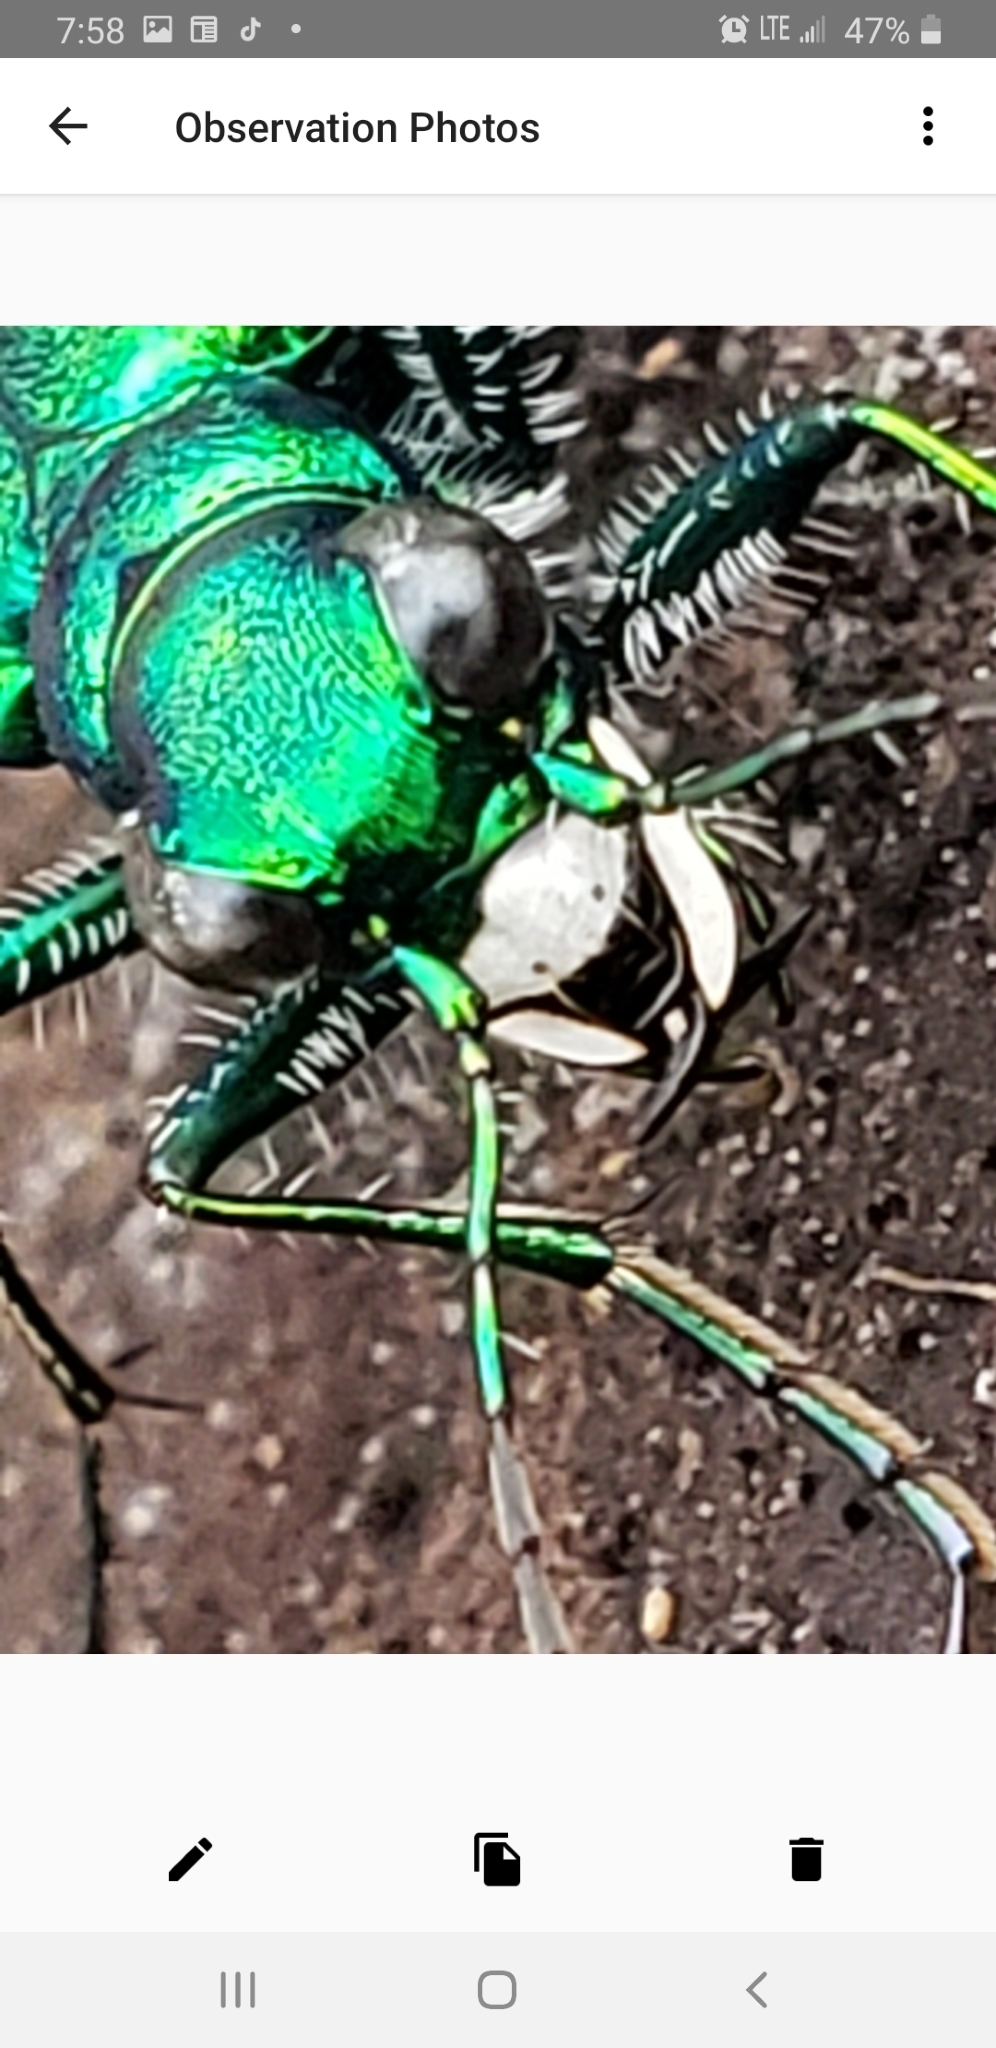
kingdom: Animalia
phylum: Arthropoda
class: Insecta
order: Hymenoptera
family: Formicidae
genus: Camponotus
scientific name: Camponotus pennsylvanicus
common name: Black carpenter ant
